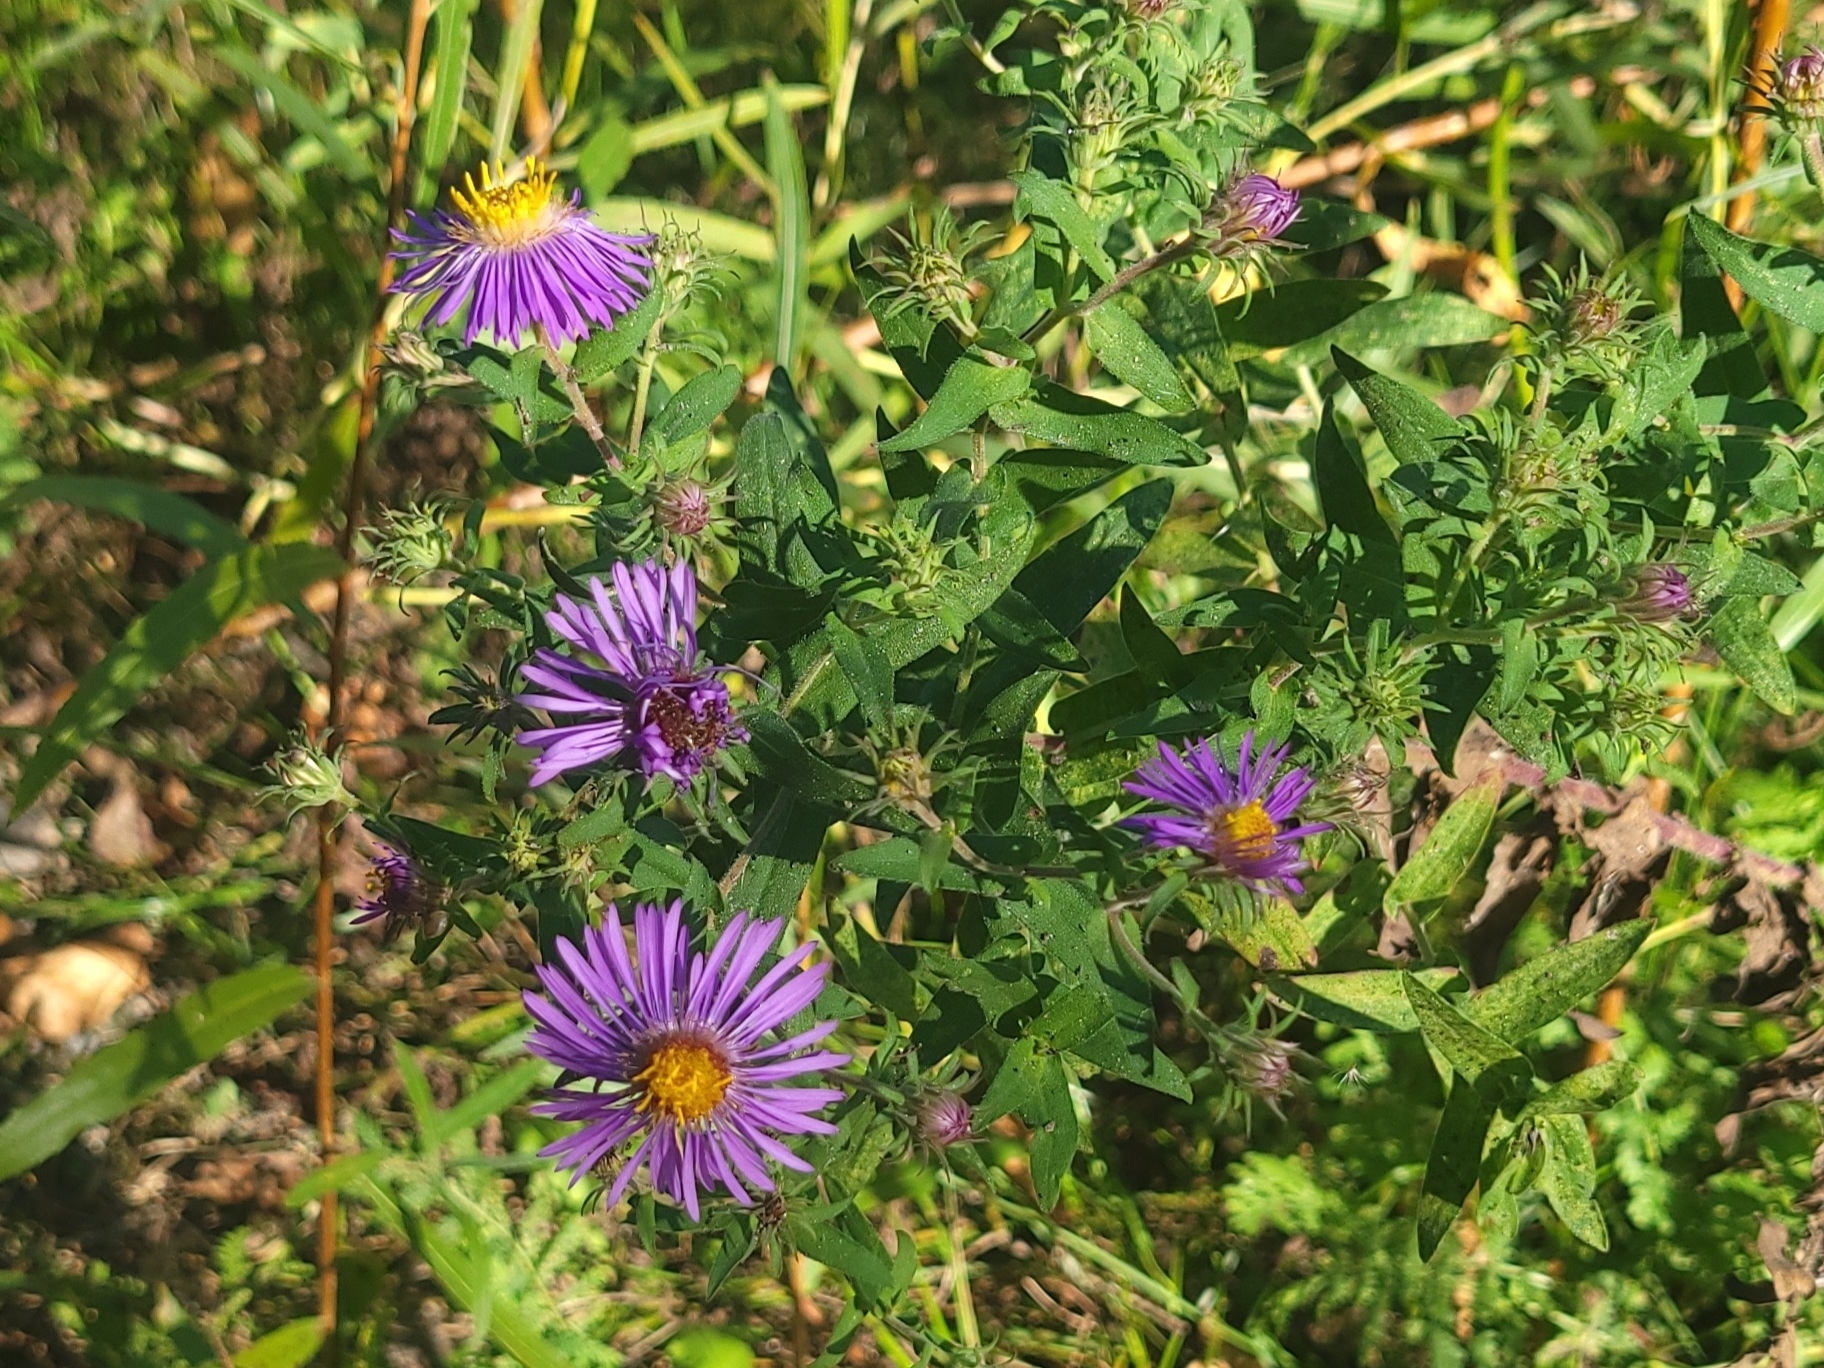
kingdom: Plantae
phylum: Tracheophyta
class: Magnoliopsida
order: Asterales
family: Asteraceae
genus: Symphyotrichum
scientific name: Symphyotrichum novae-angliae
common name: Michaelmas daisy
